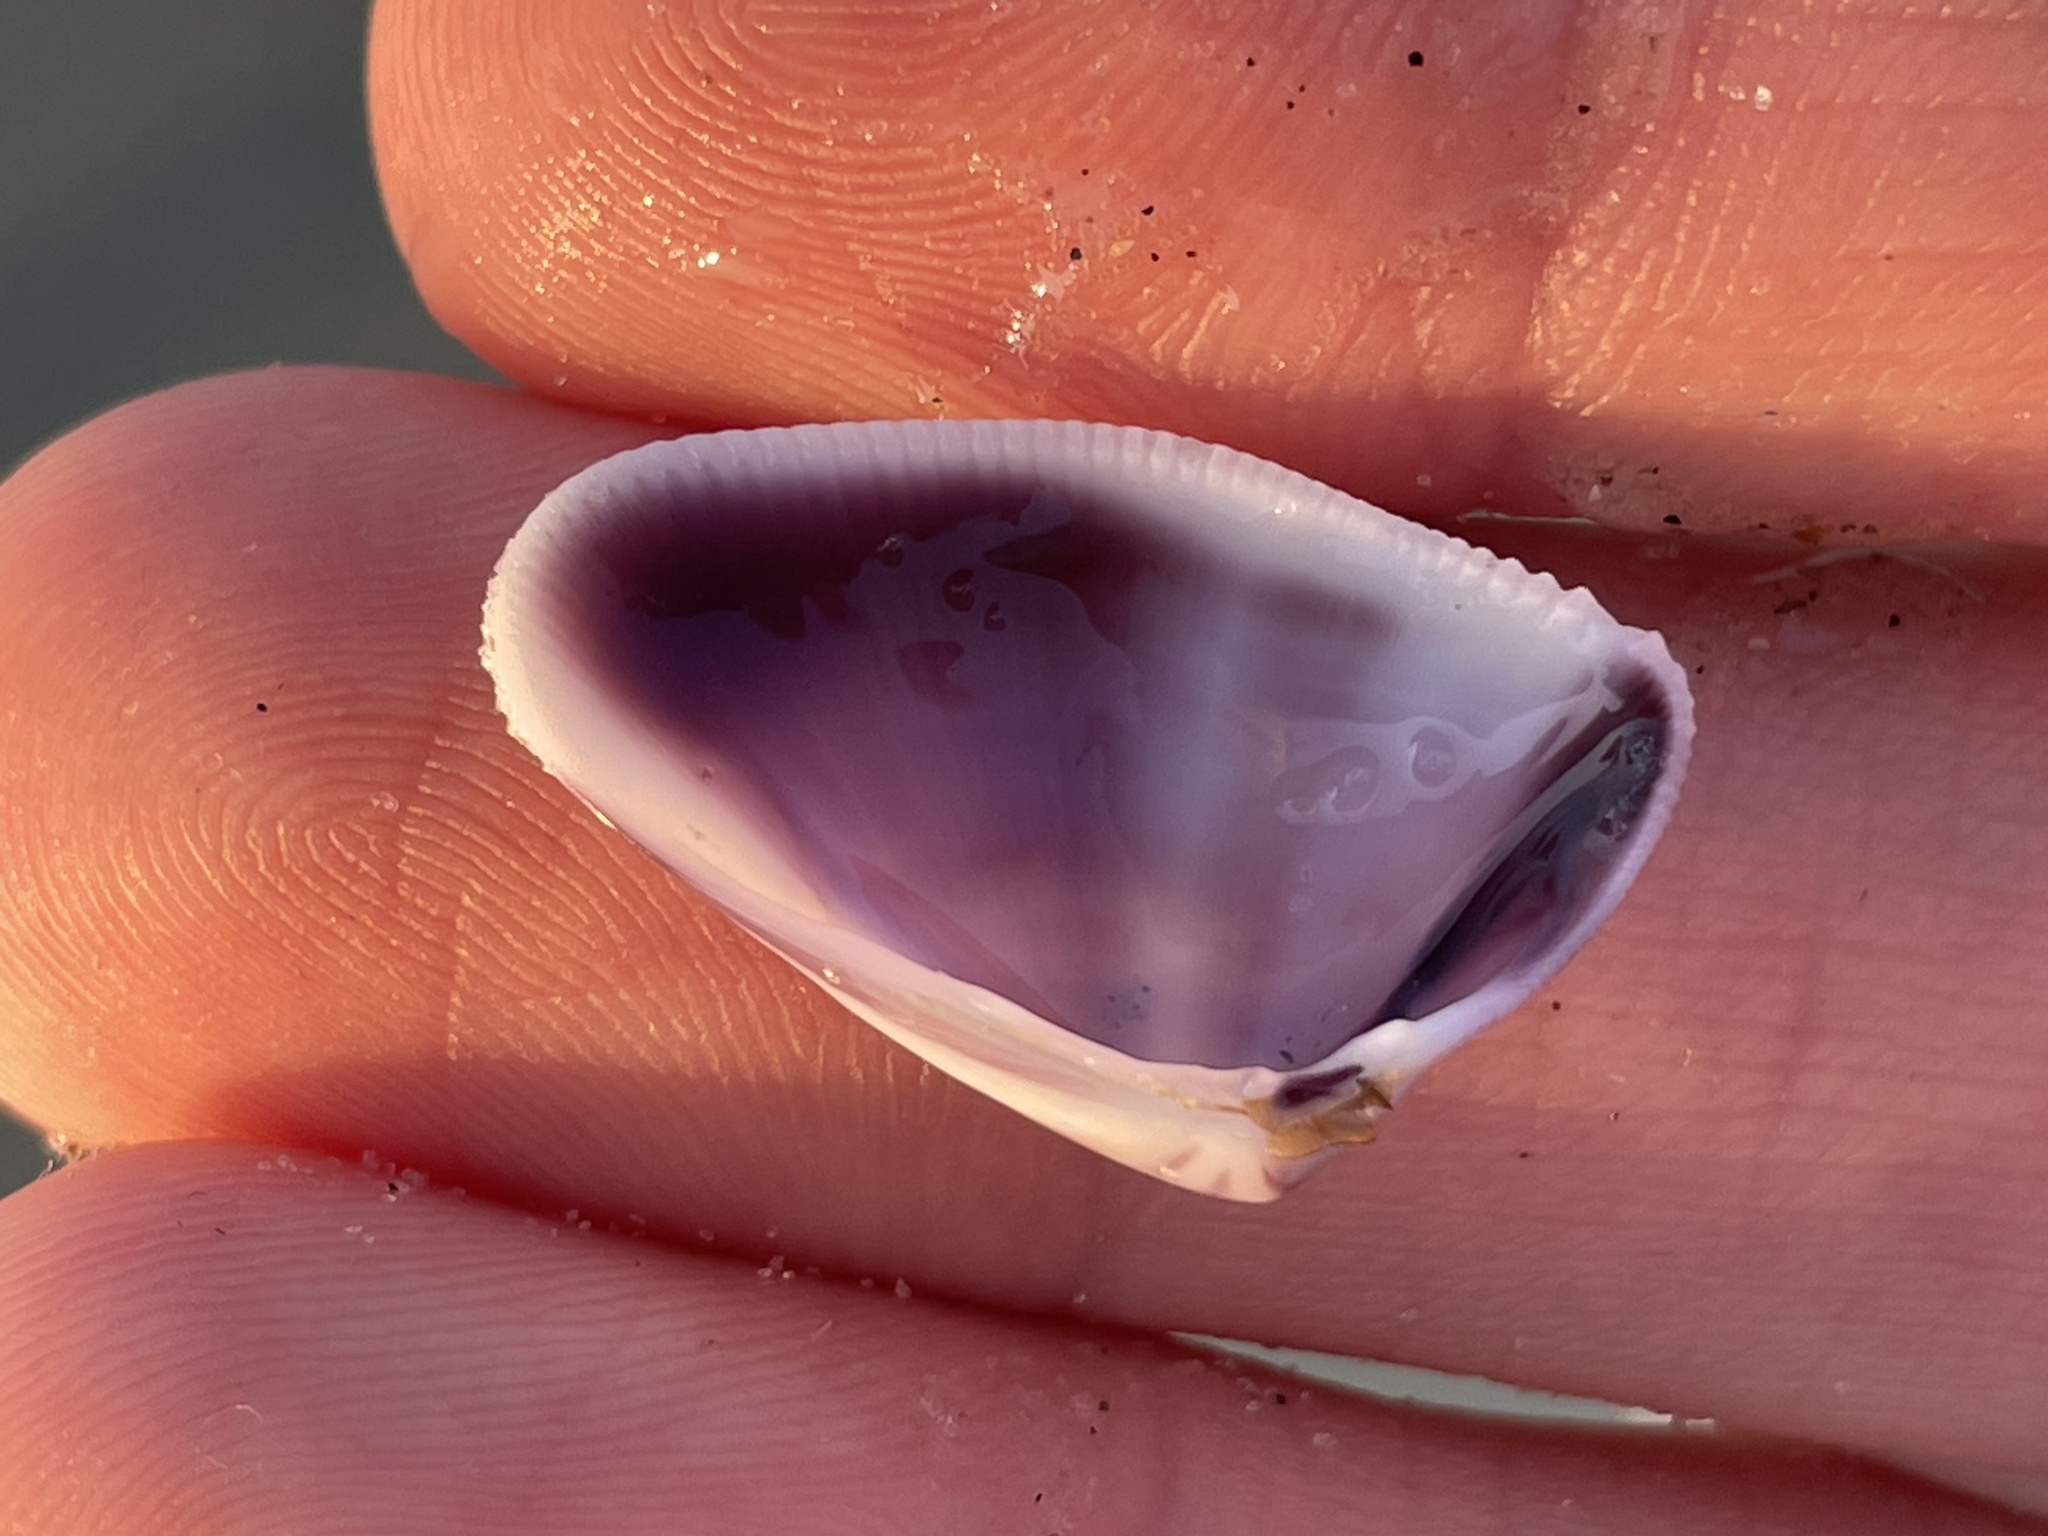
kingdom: Animalia
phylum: Mollusca
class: Bivalvia
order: Cardiida
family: Donacidae
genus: Donax
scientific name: Donax variabilis
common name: Butterfly shell
